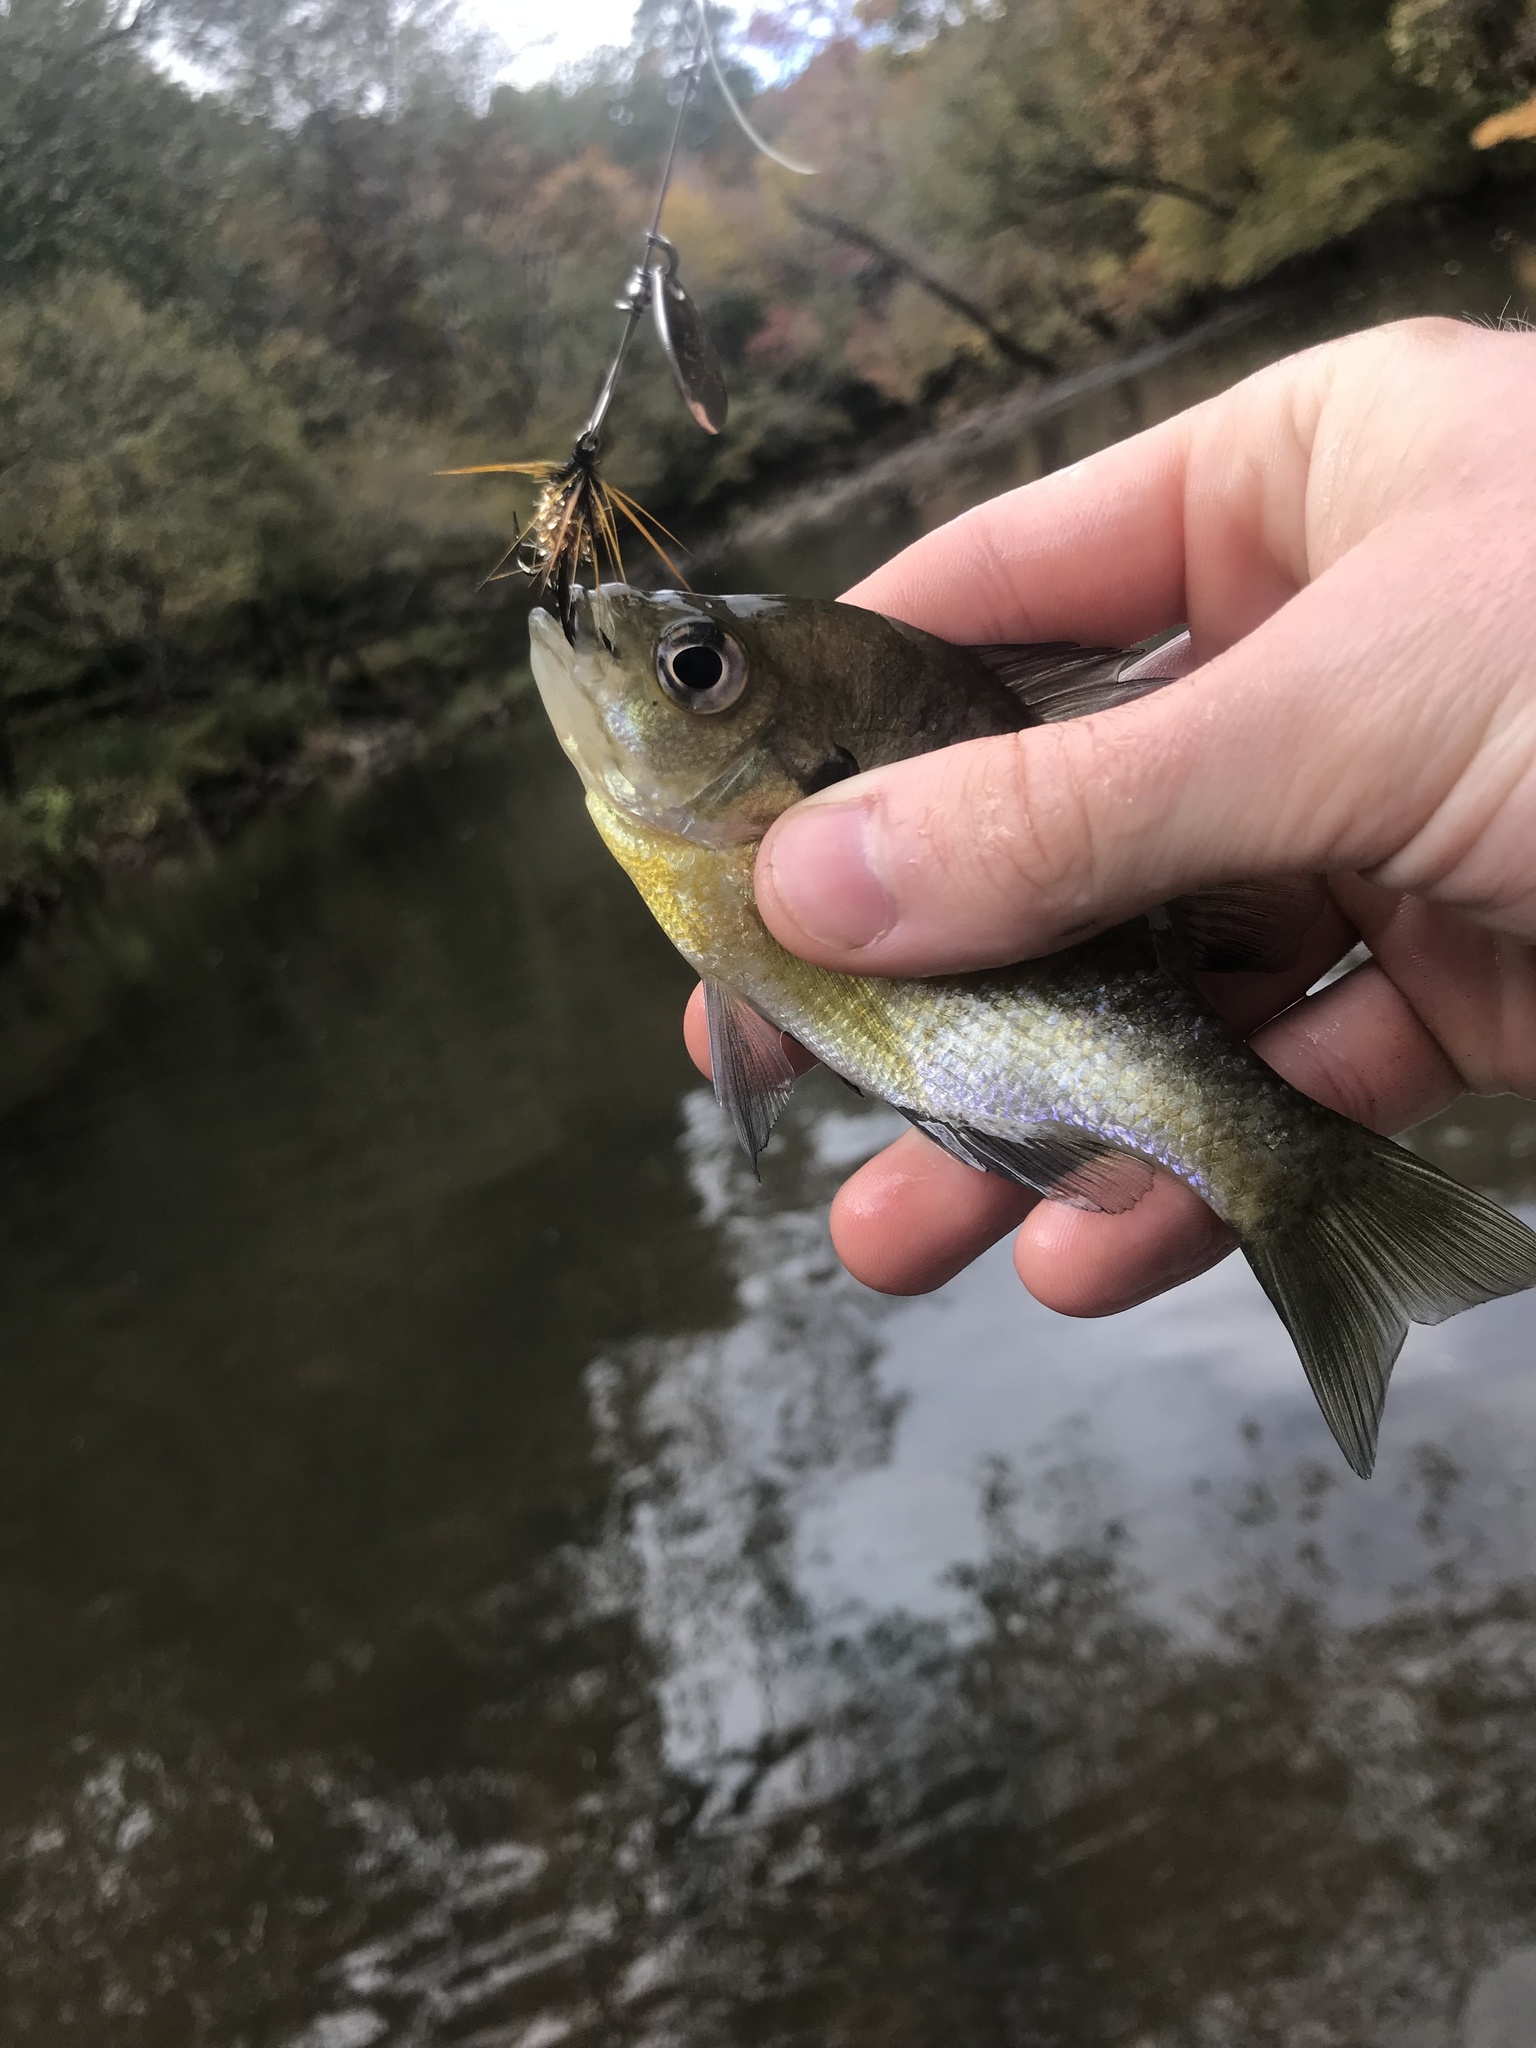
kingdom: Animalia
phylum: Chordata
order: Perciformes
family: Centrarchidae
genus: Lepomis
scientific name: Lepomis macrochirus
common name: Bluegill
